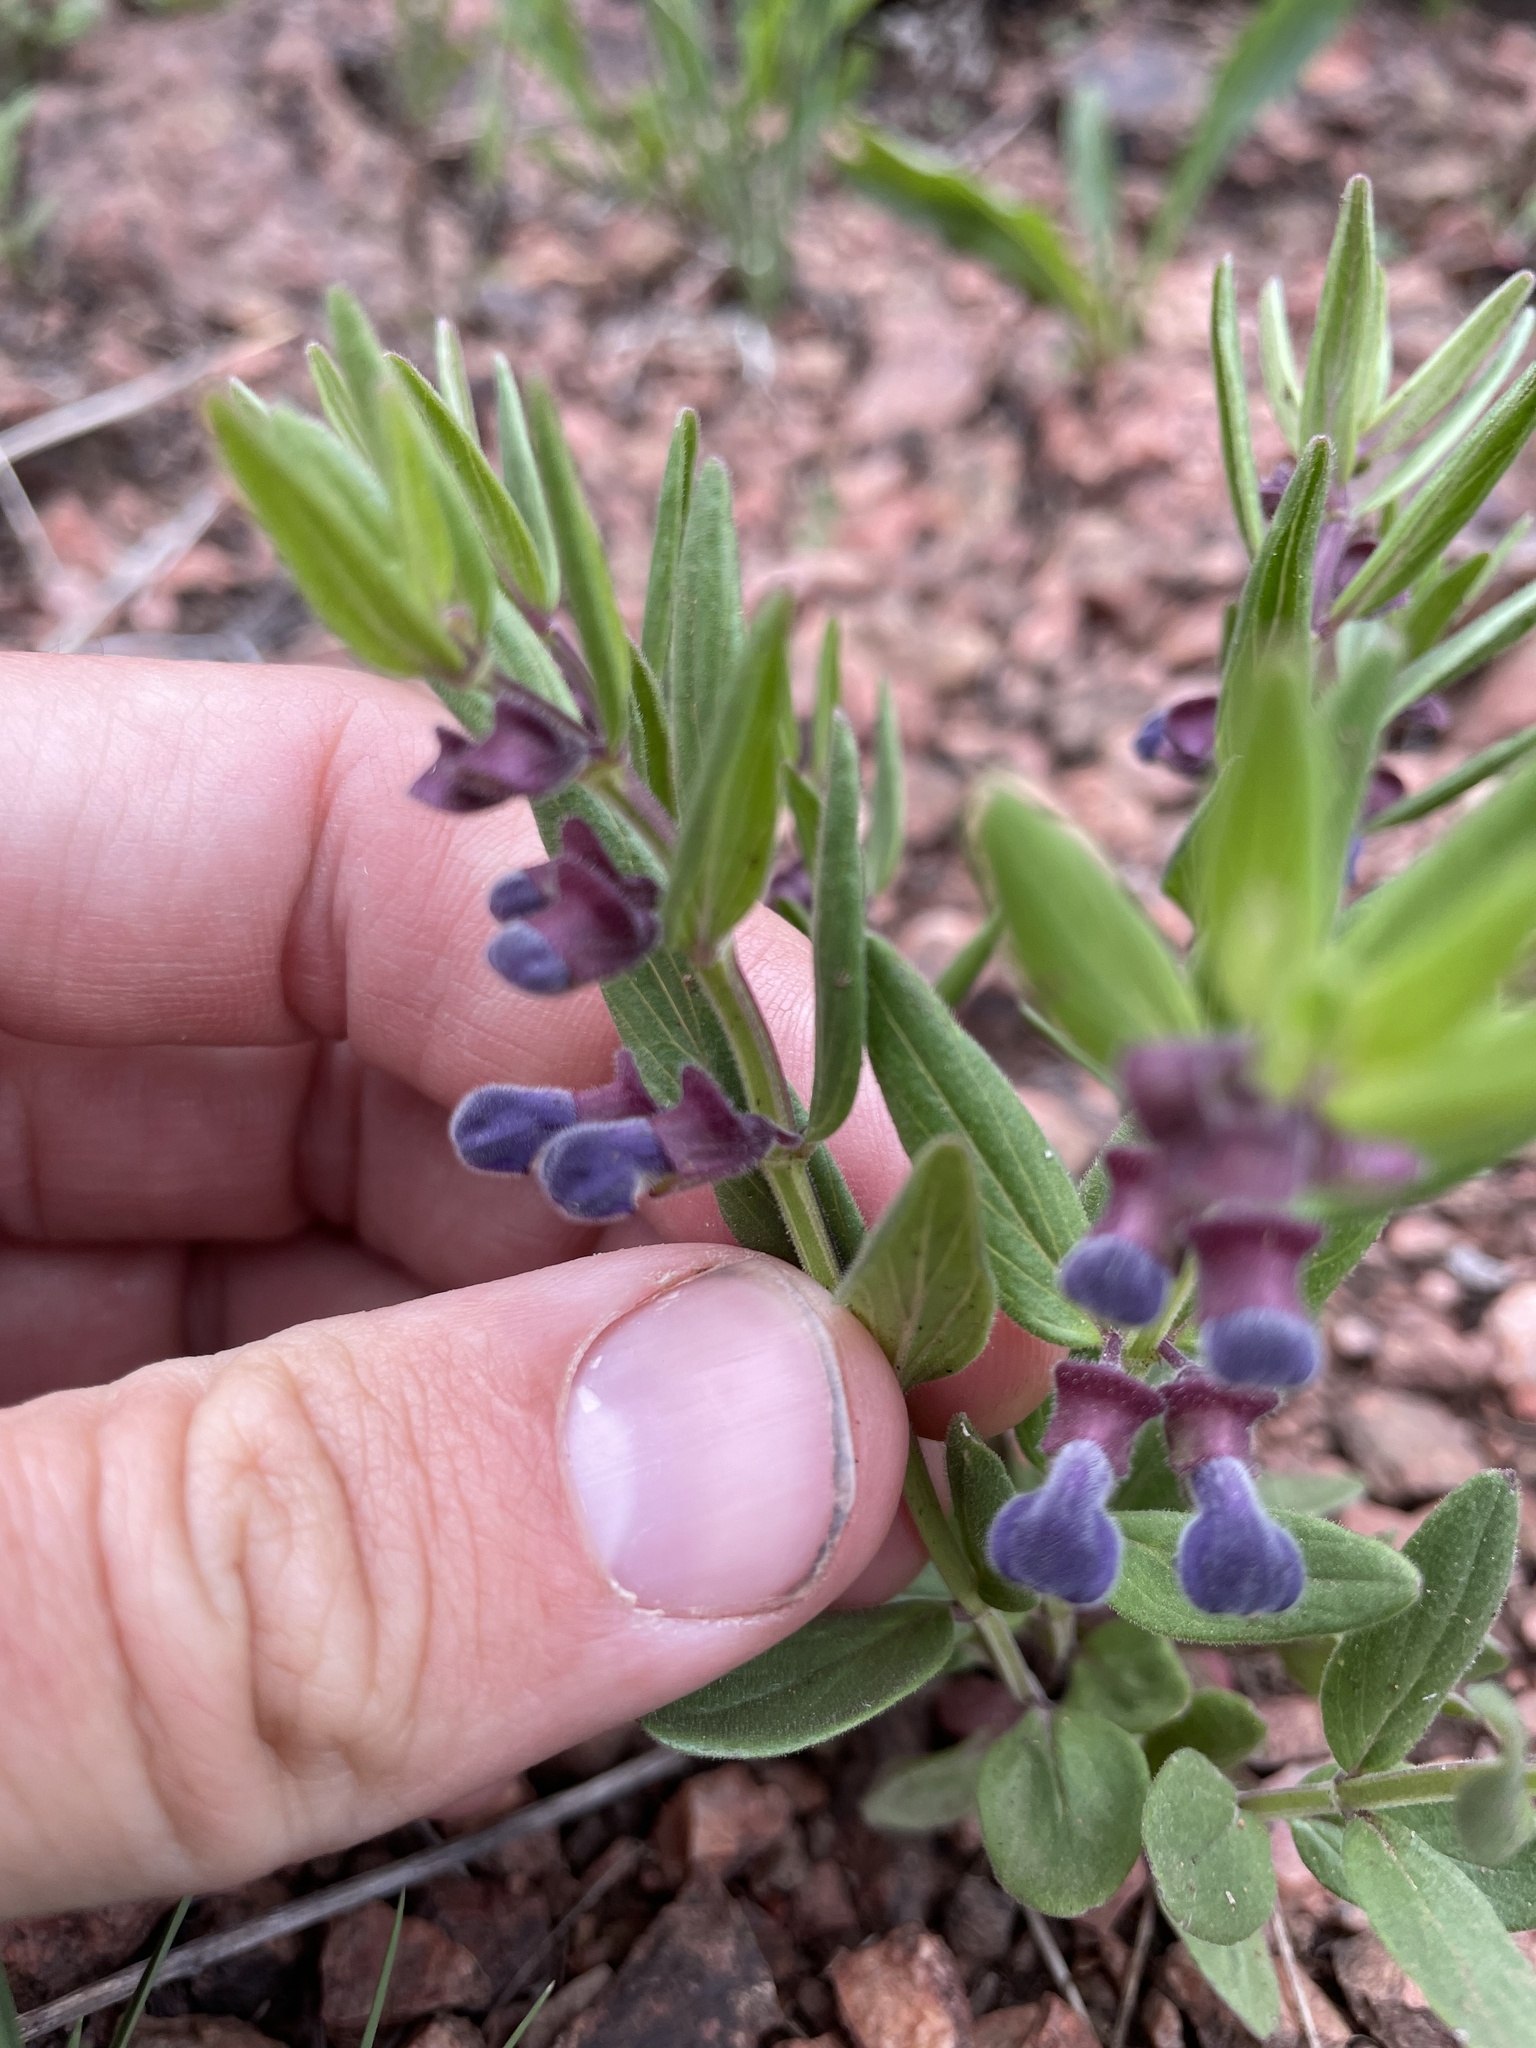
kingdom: Plantae
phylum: Tracheophyta
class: Magnoliopsida
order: Lamiales
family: Lamiaceae
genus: Scutellaria
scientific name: Scutellaria brittonii
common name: Britton's skullcap
